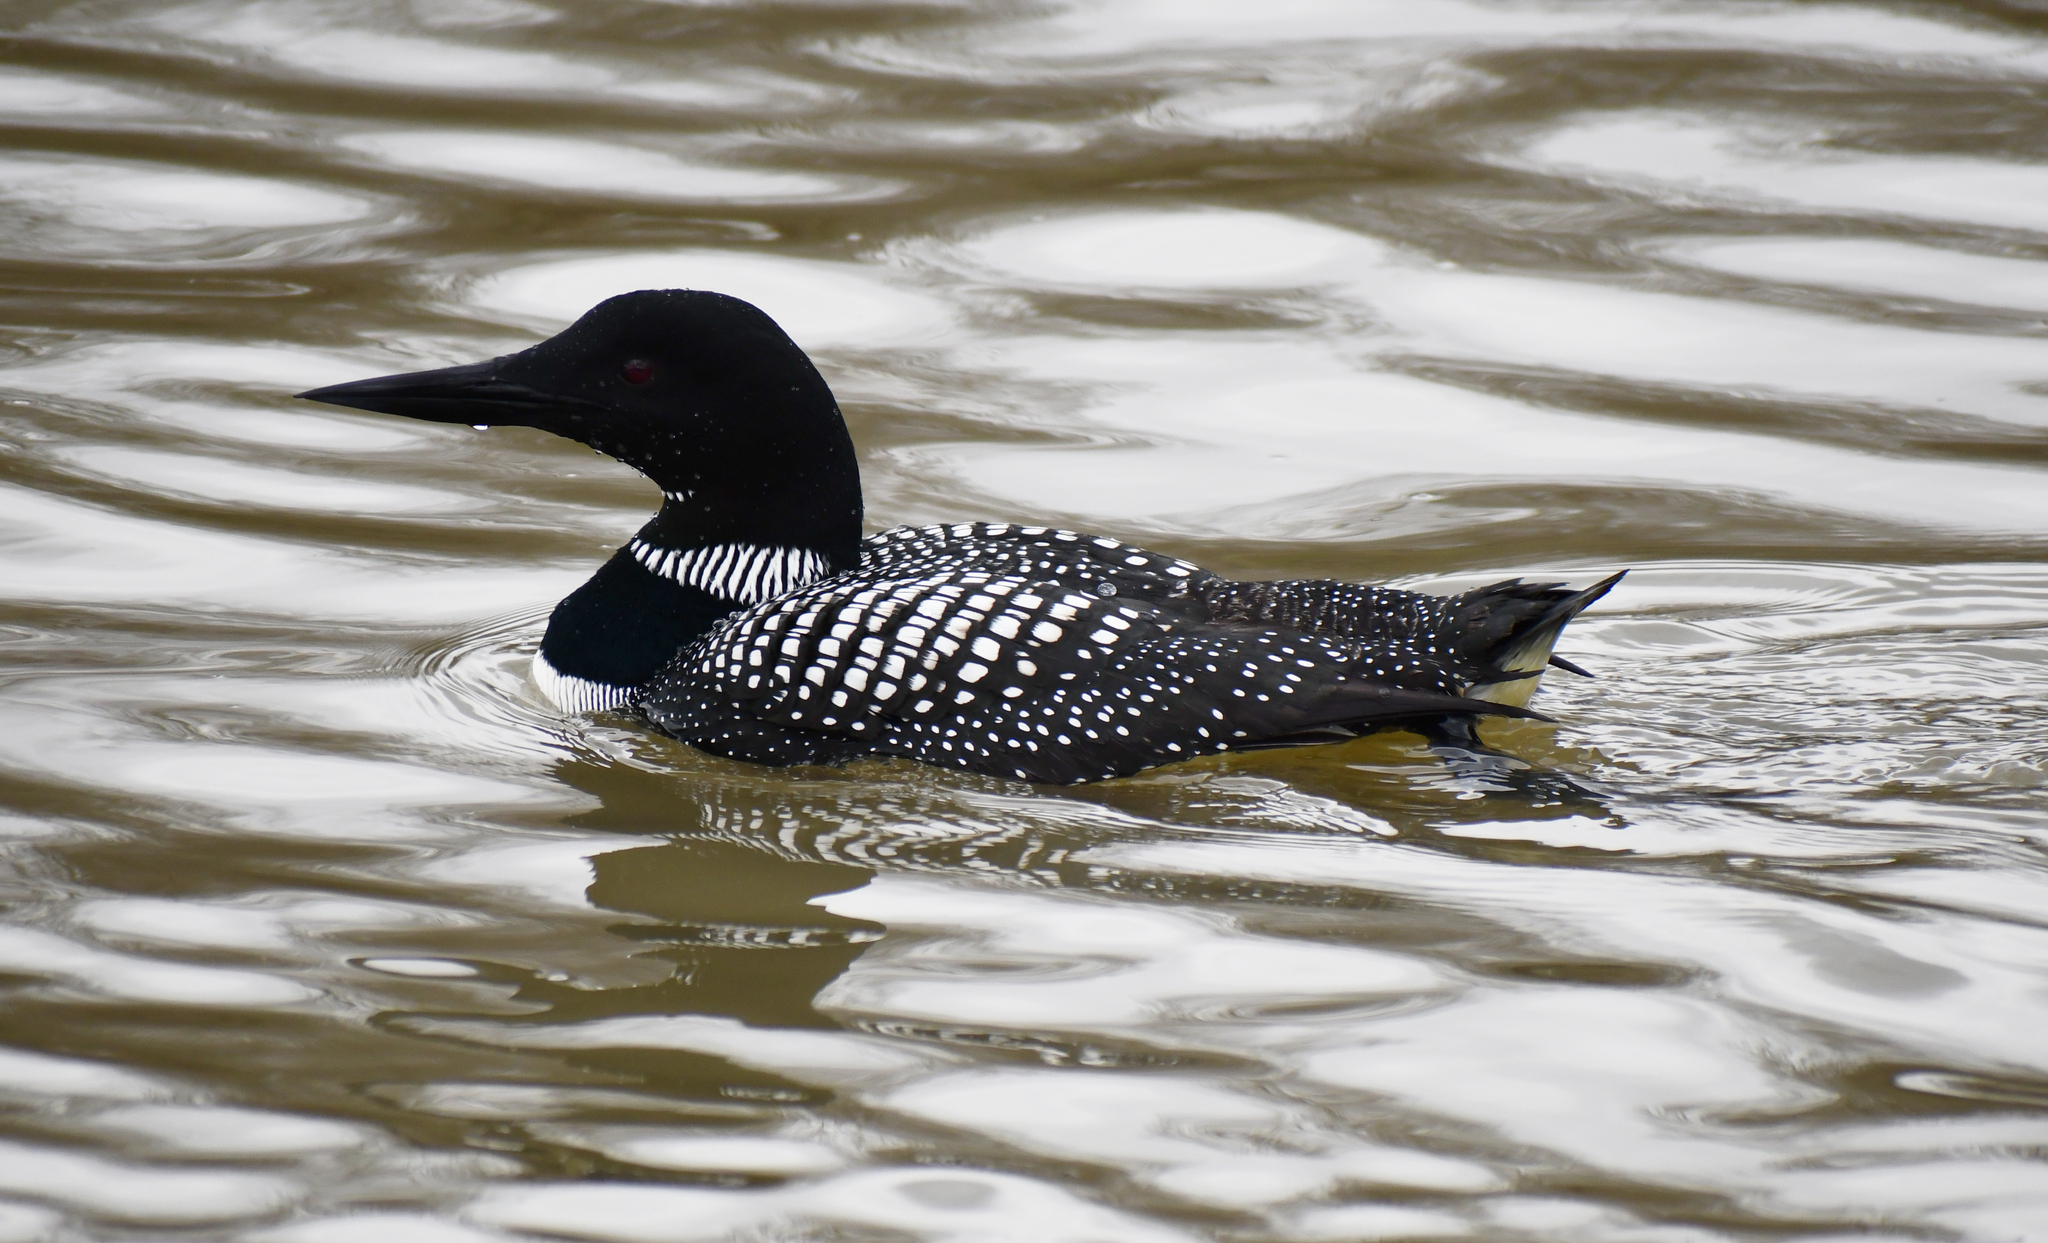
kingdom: Animalia
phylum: Chordata
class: Aves
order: Gaviiformes
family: Gaviidae
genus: Gavia
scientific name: Gavia immer
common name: Common loon
